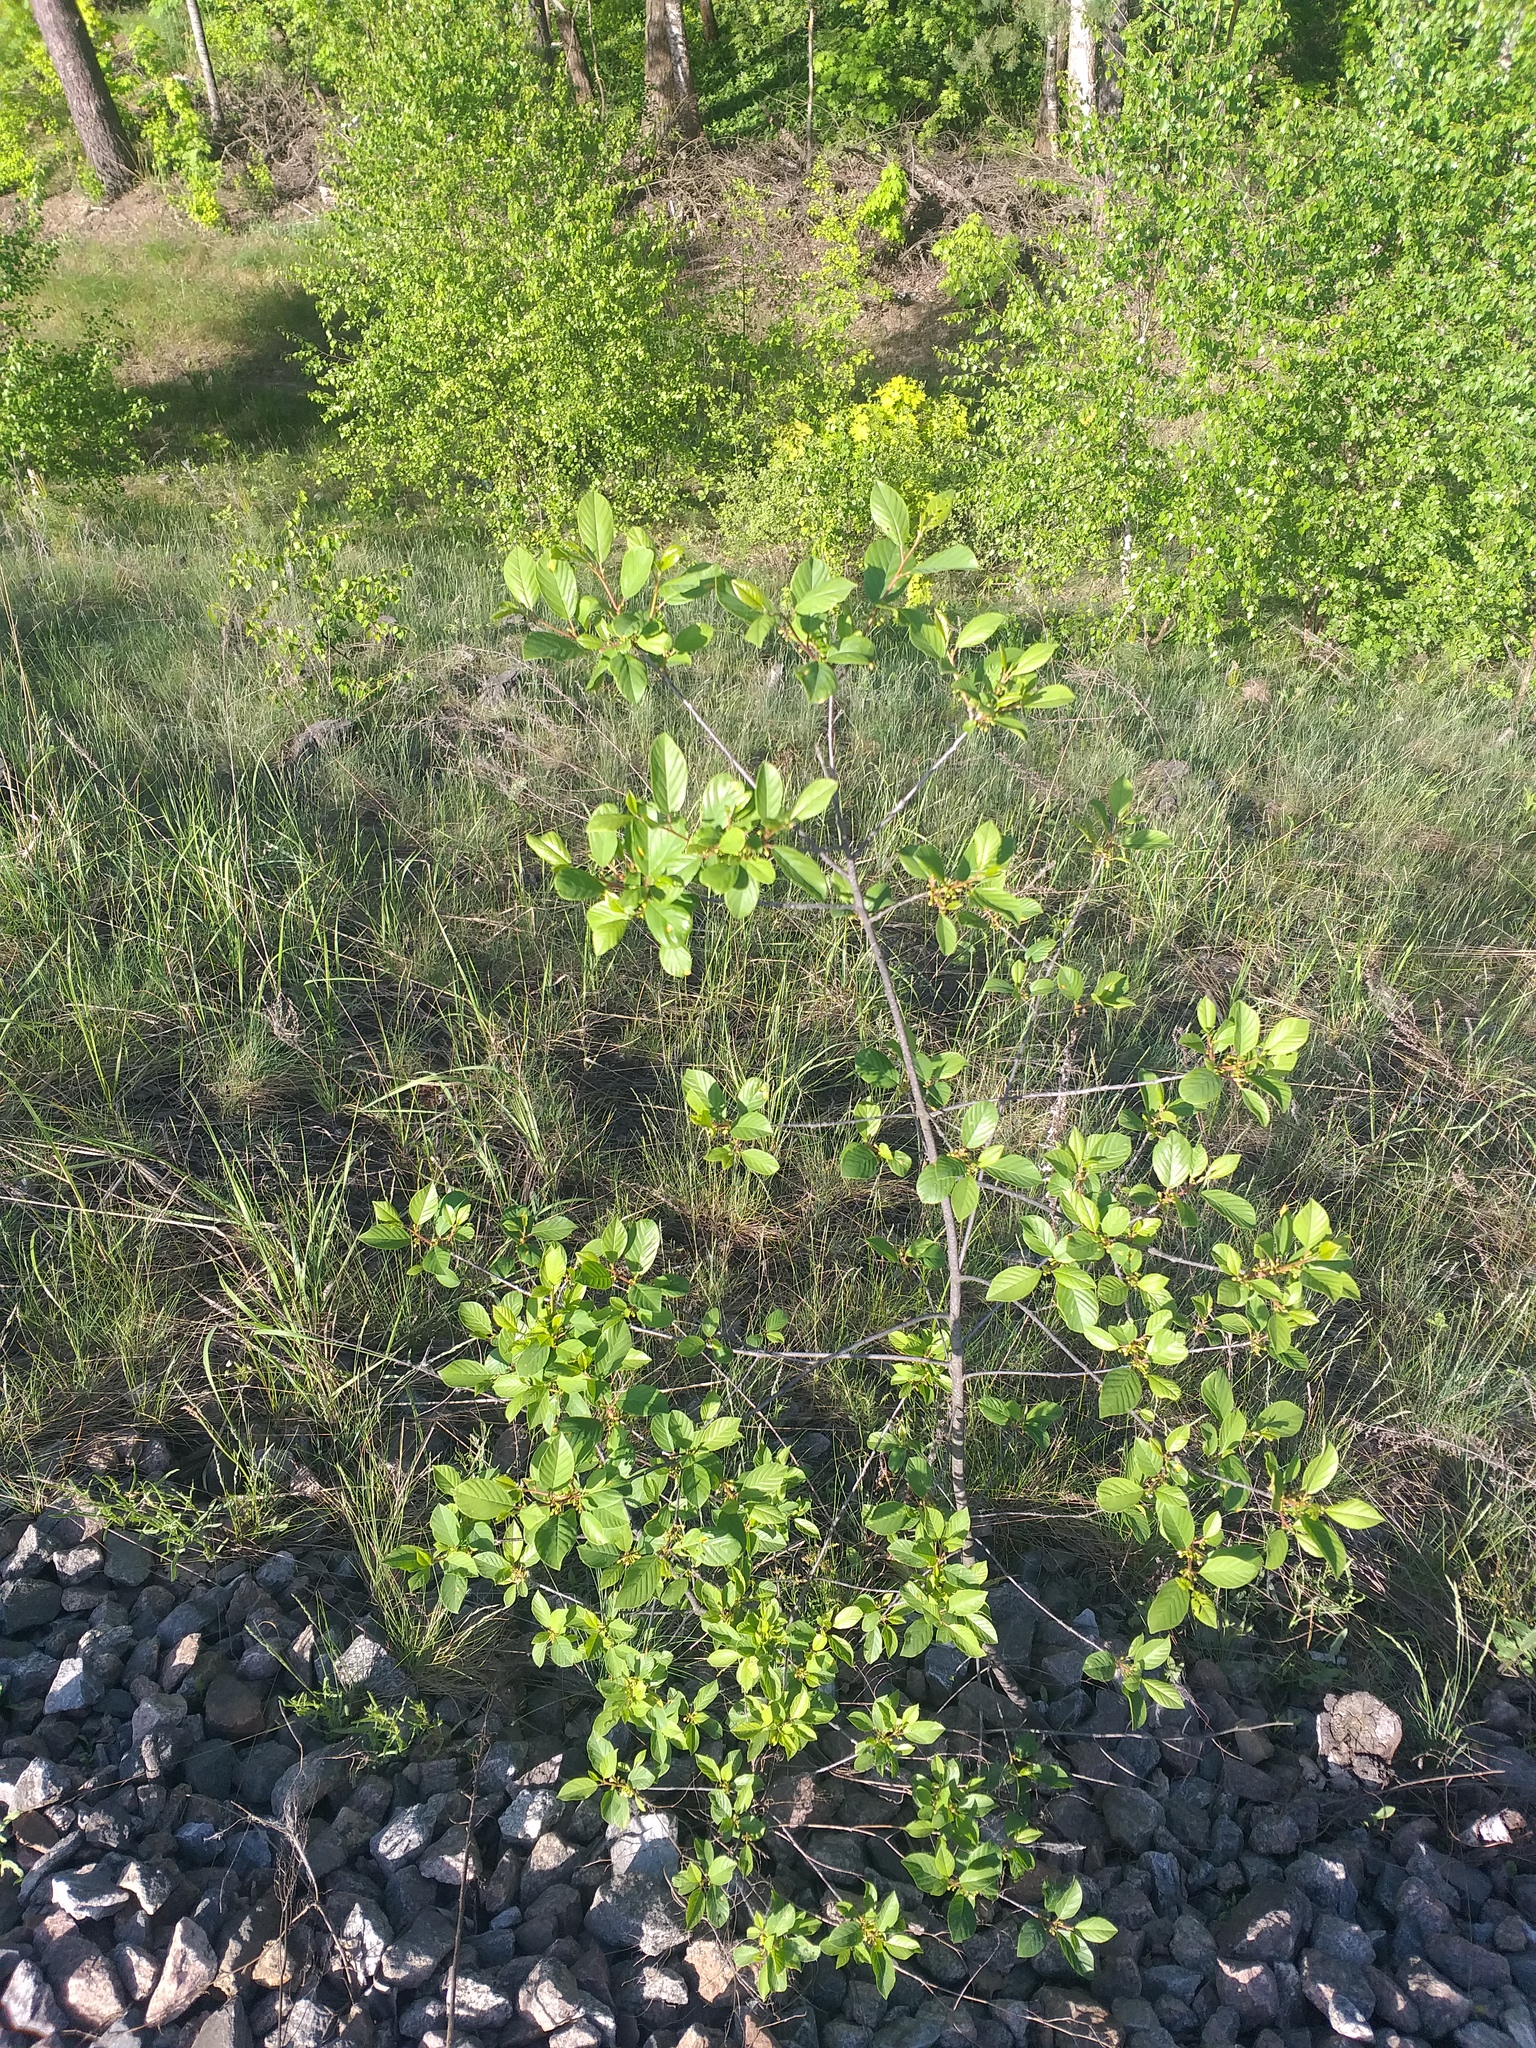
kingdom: Plantae
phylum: Tracheophyta
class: Magnoliopsida
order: Rosales
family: Rhamnaceae
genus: Frangula
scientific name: Frangula alnus
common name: Alder buckthorn
